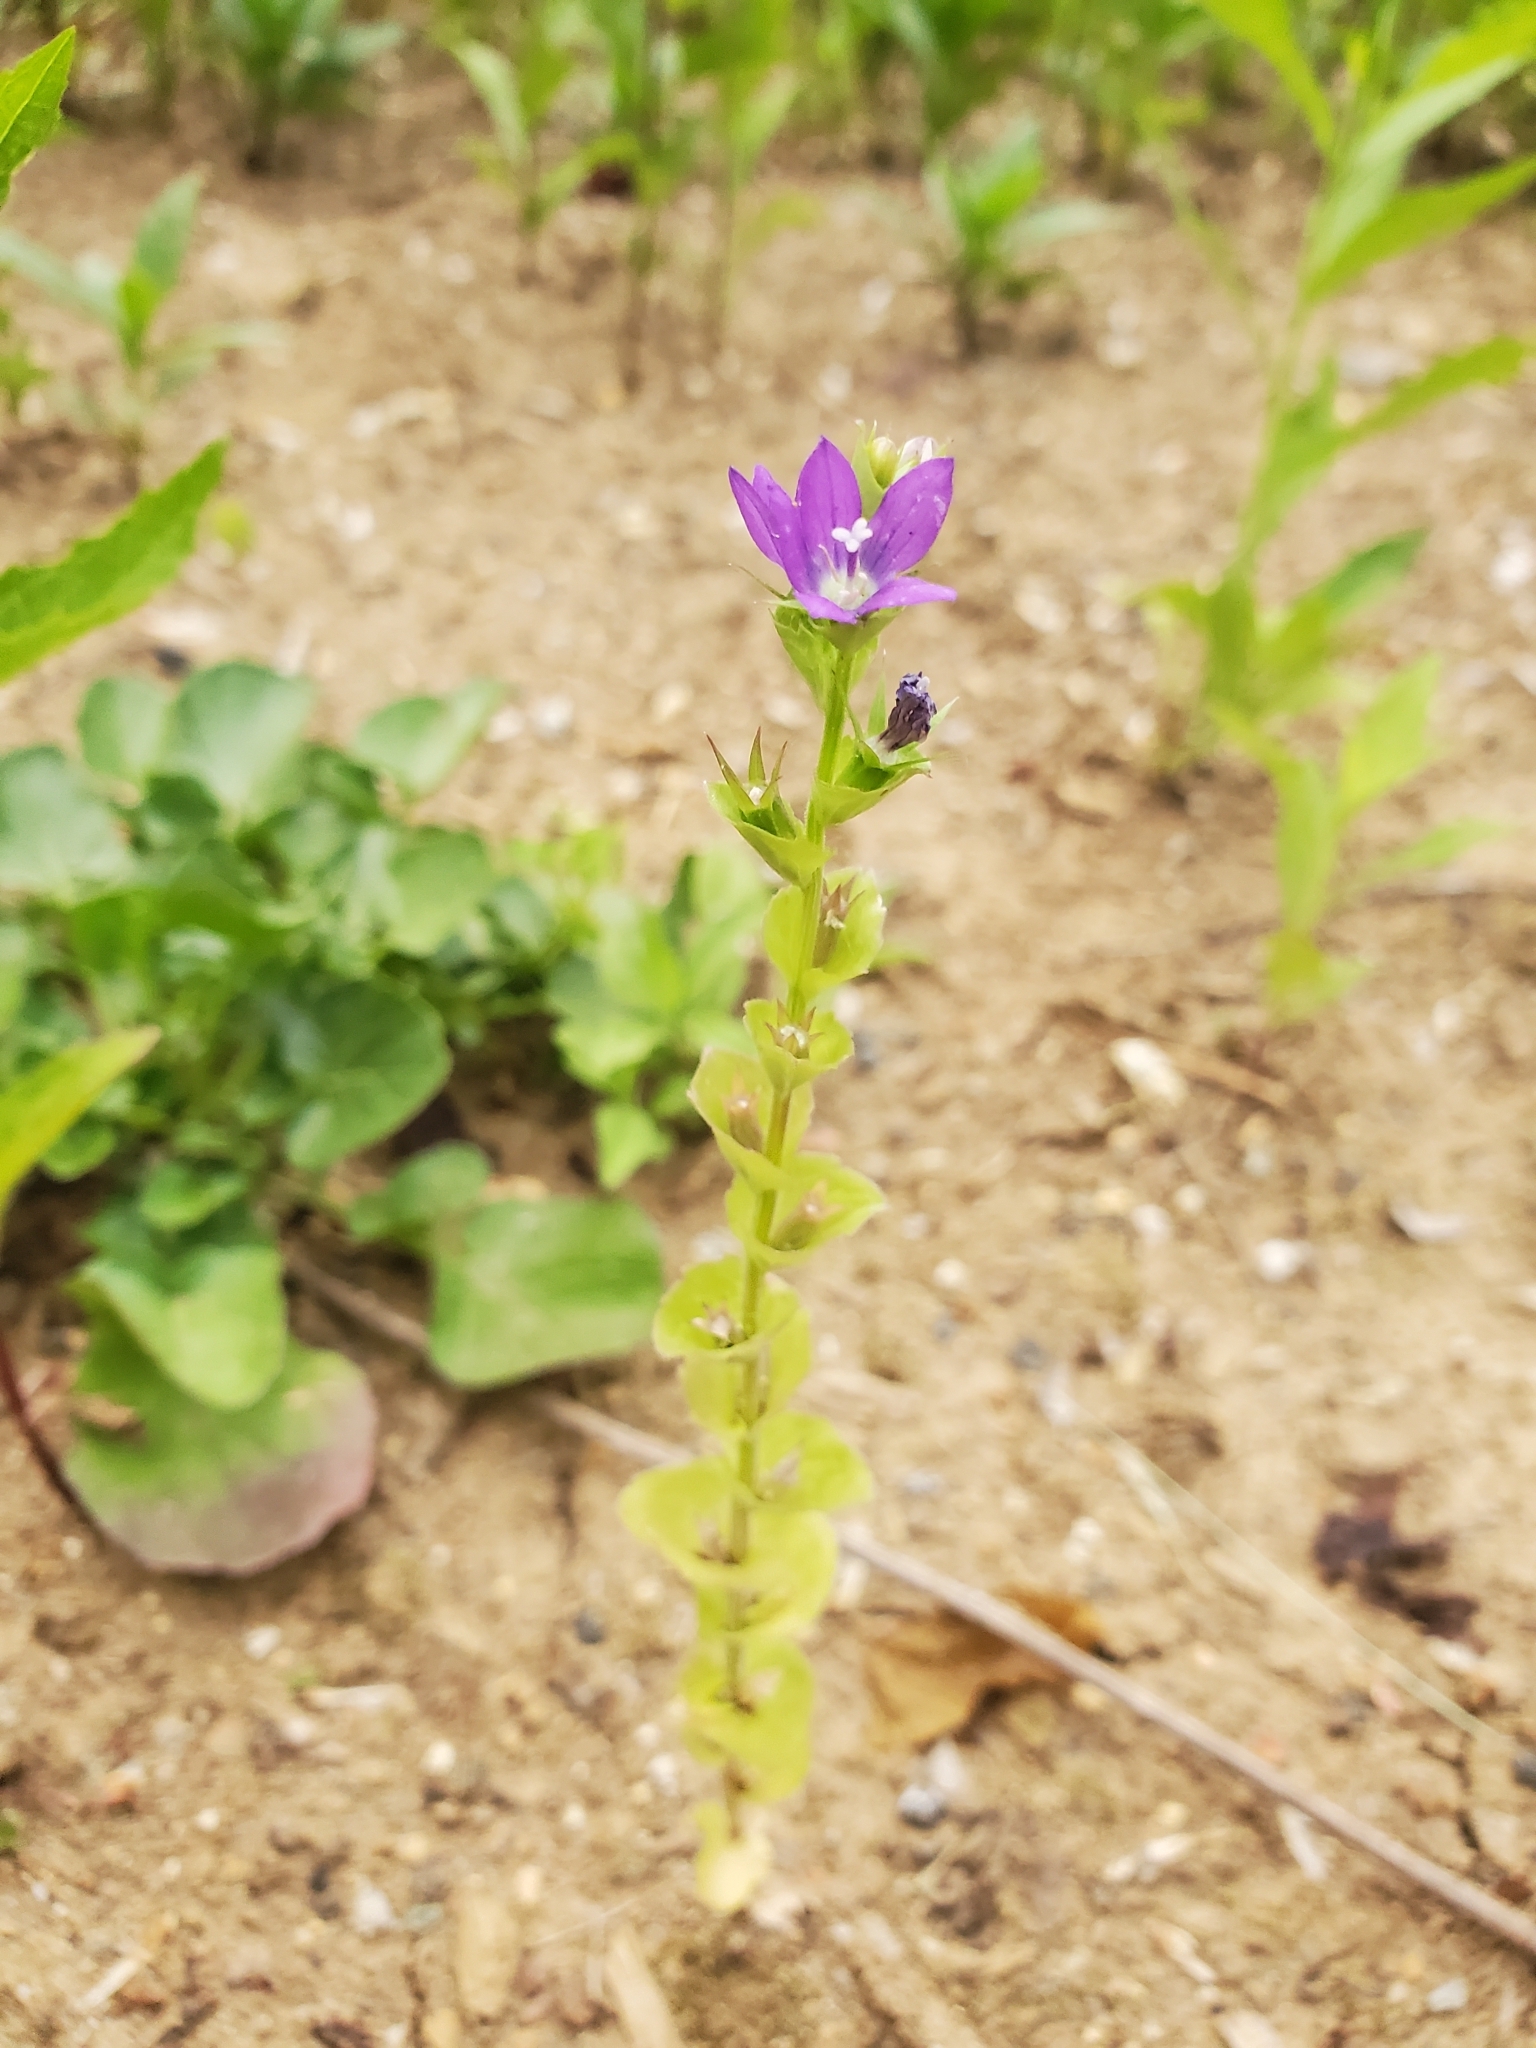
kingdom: Plantae
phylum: Tracheophyta
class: Magnoliopsida
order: Asterales
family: Campanulaceae
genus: Triodanis
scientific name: Triodanis perfoliata
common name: Clasping venus' looking-glass
